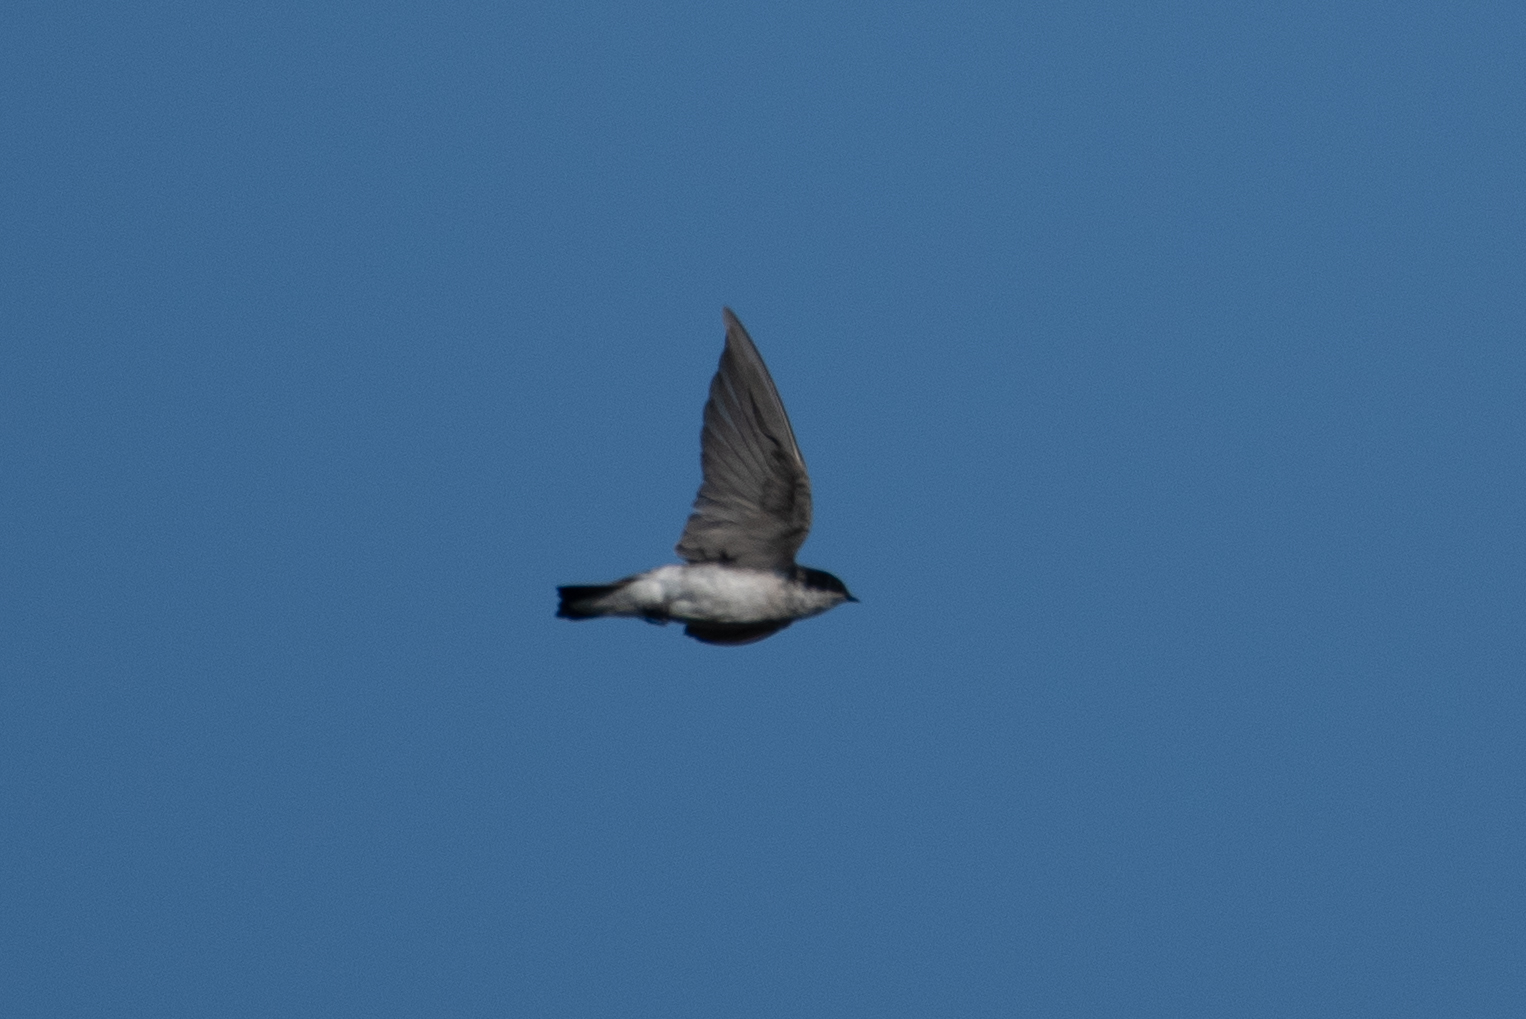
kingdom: Animalia
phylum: Chordata
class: Aves
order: Passeriformes
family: Hirundinidae
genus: Tachycineta
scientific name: Tachycineta bicolor
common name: Tree swallow
